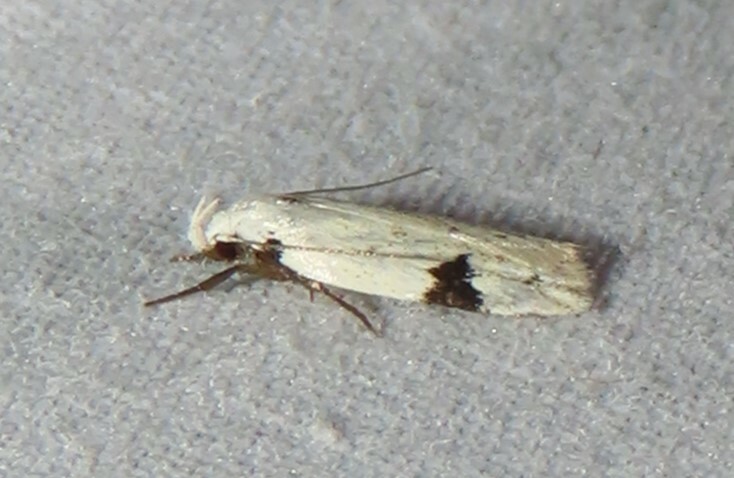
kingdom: Animalia
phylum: Arthropoda
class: Insecta
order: Lepidoptera
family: Oecophoridae
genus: Inga
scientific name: Inga sparsiciliella
